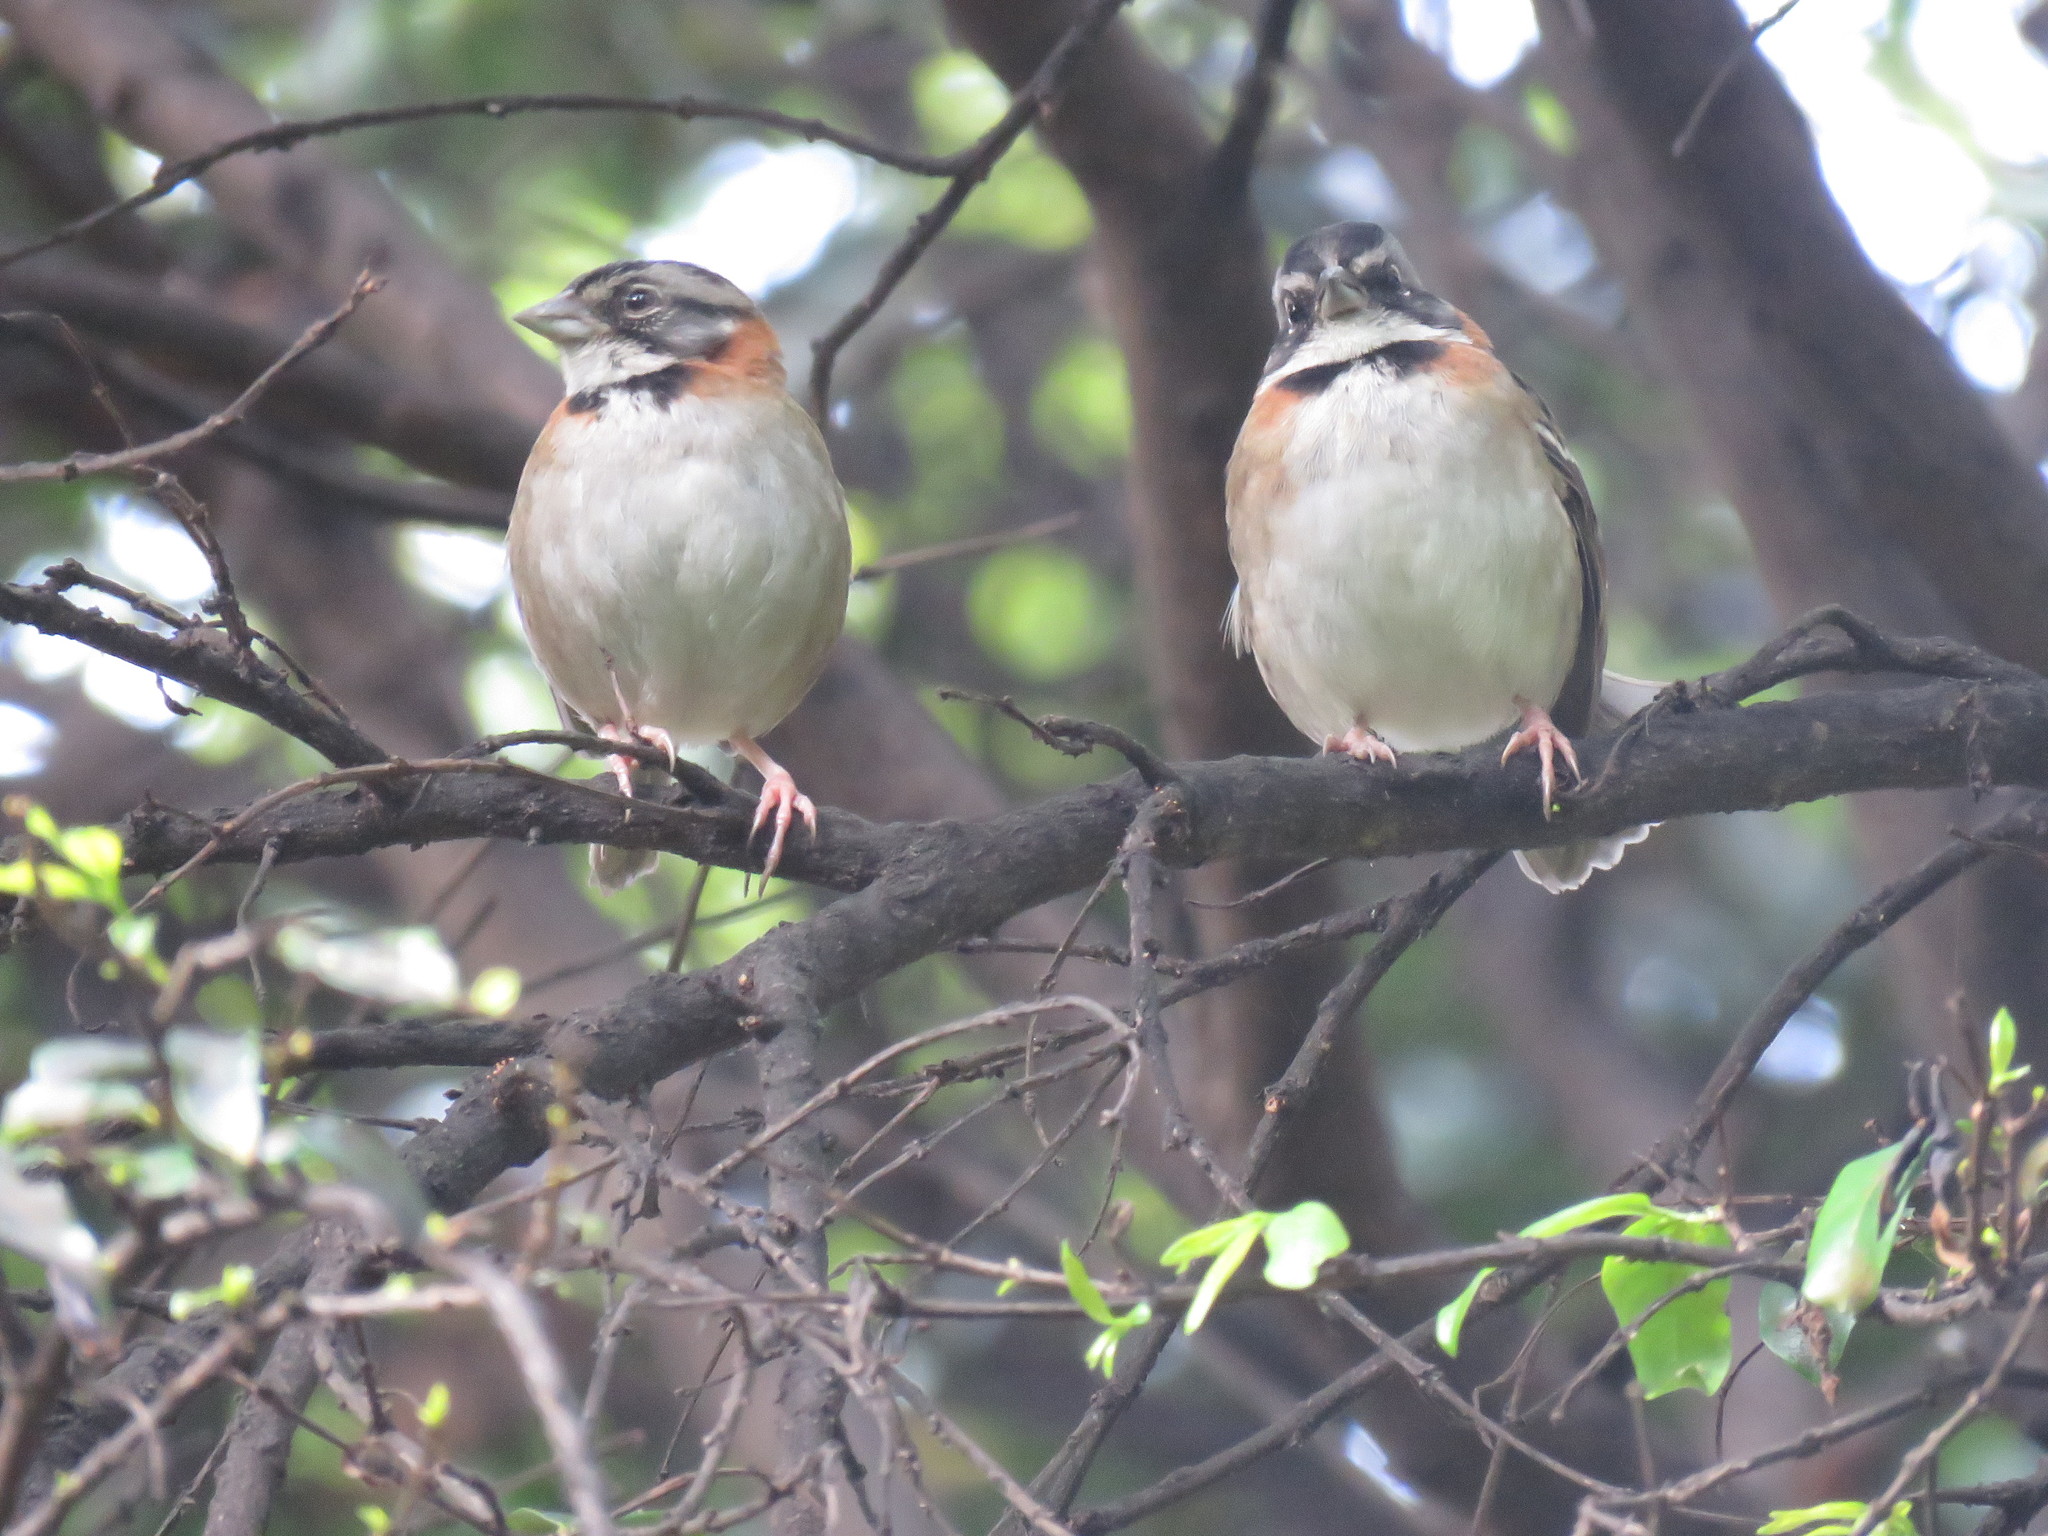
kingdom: Animalia
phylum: Chordata
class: Aves
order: Passeriformes
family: Passerellidae
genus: Zonotrichia
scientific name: Zonotrichia capensis
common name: Rufous-collared sparrow
